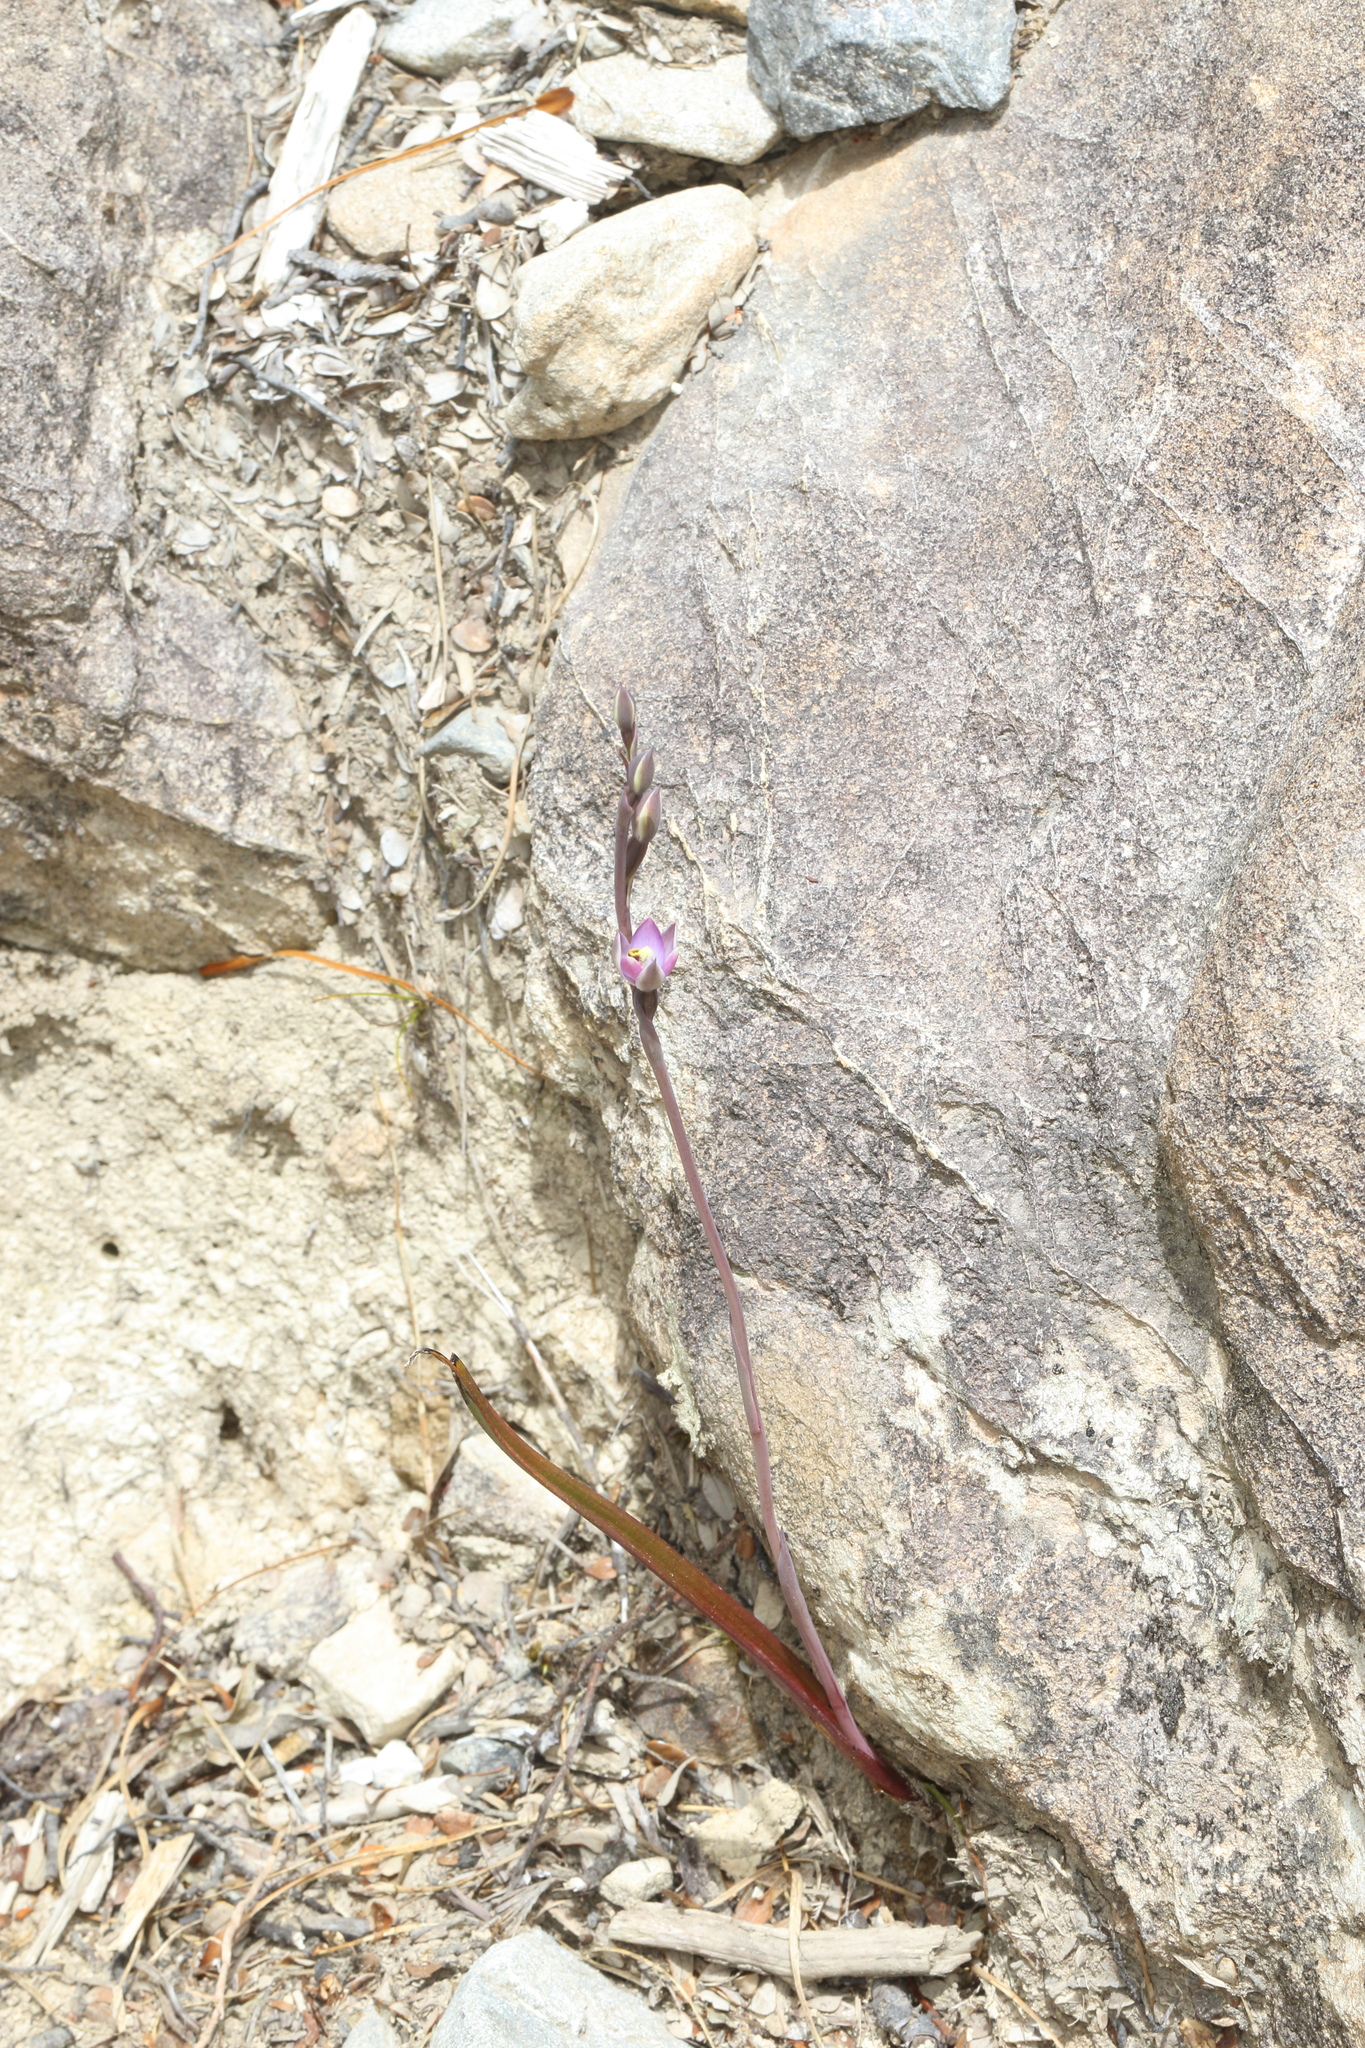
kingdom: Plantae
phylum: Tracheophyta
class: Liliopsida
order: Asparagales
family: Orchidaceae
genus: Thelymitra
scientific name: Thelymitra hatchii
